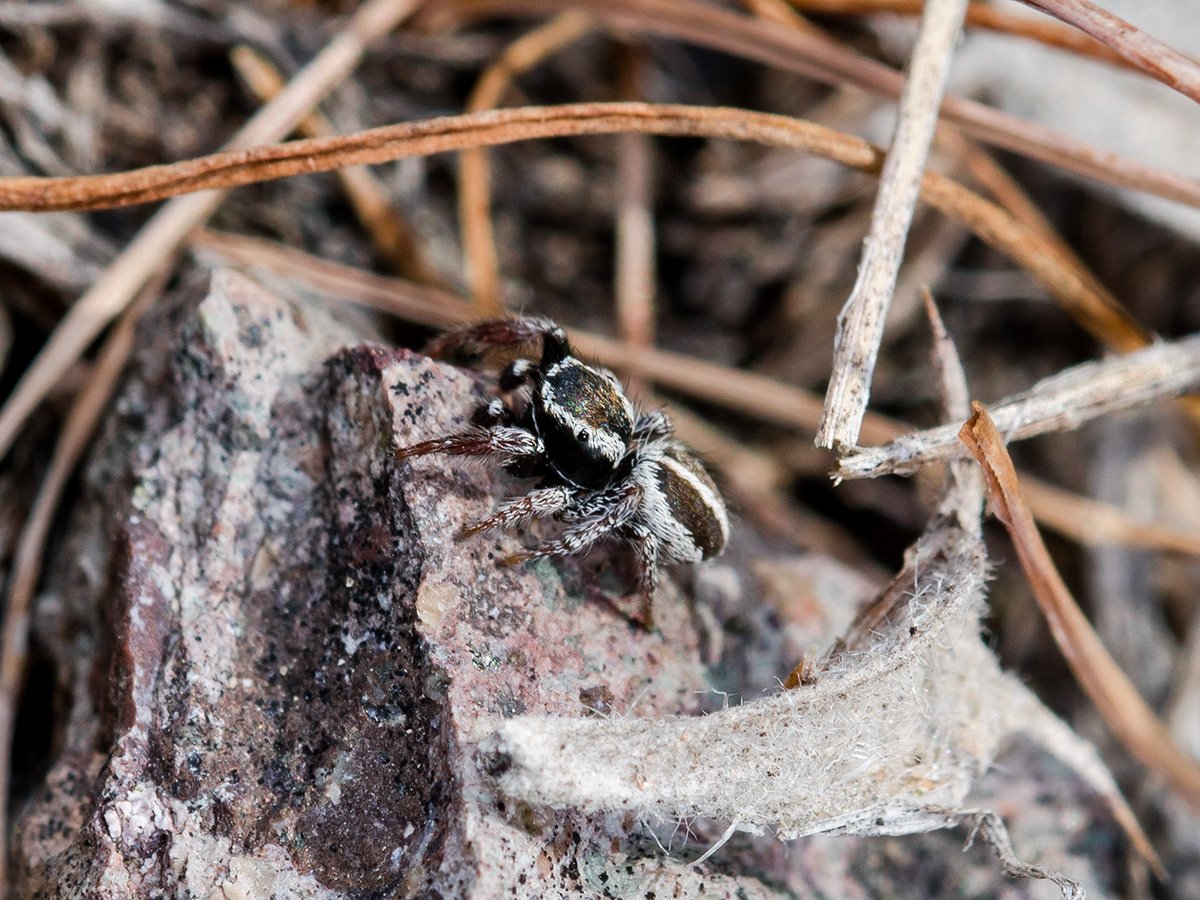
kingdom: Animalia
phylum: Arthropoda
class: Arachnida
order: Araneae
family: Salticidae
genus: Pellenes
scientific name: Pellenes epularis
